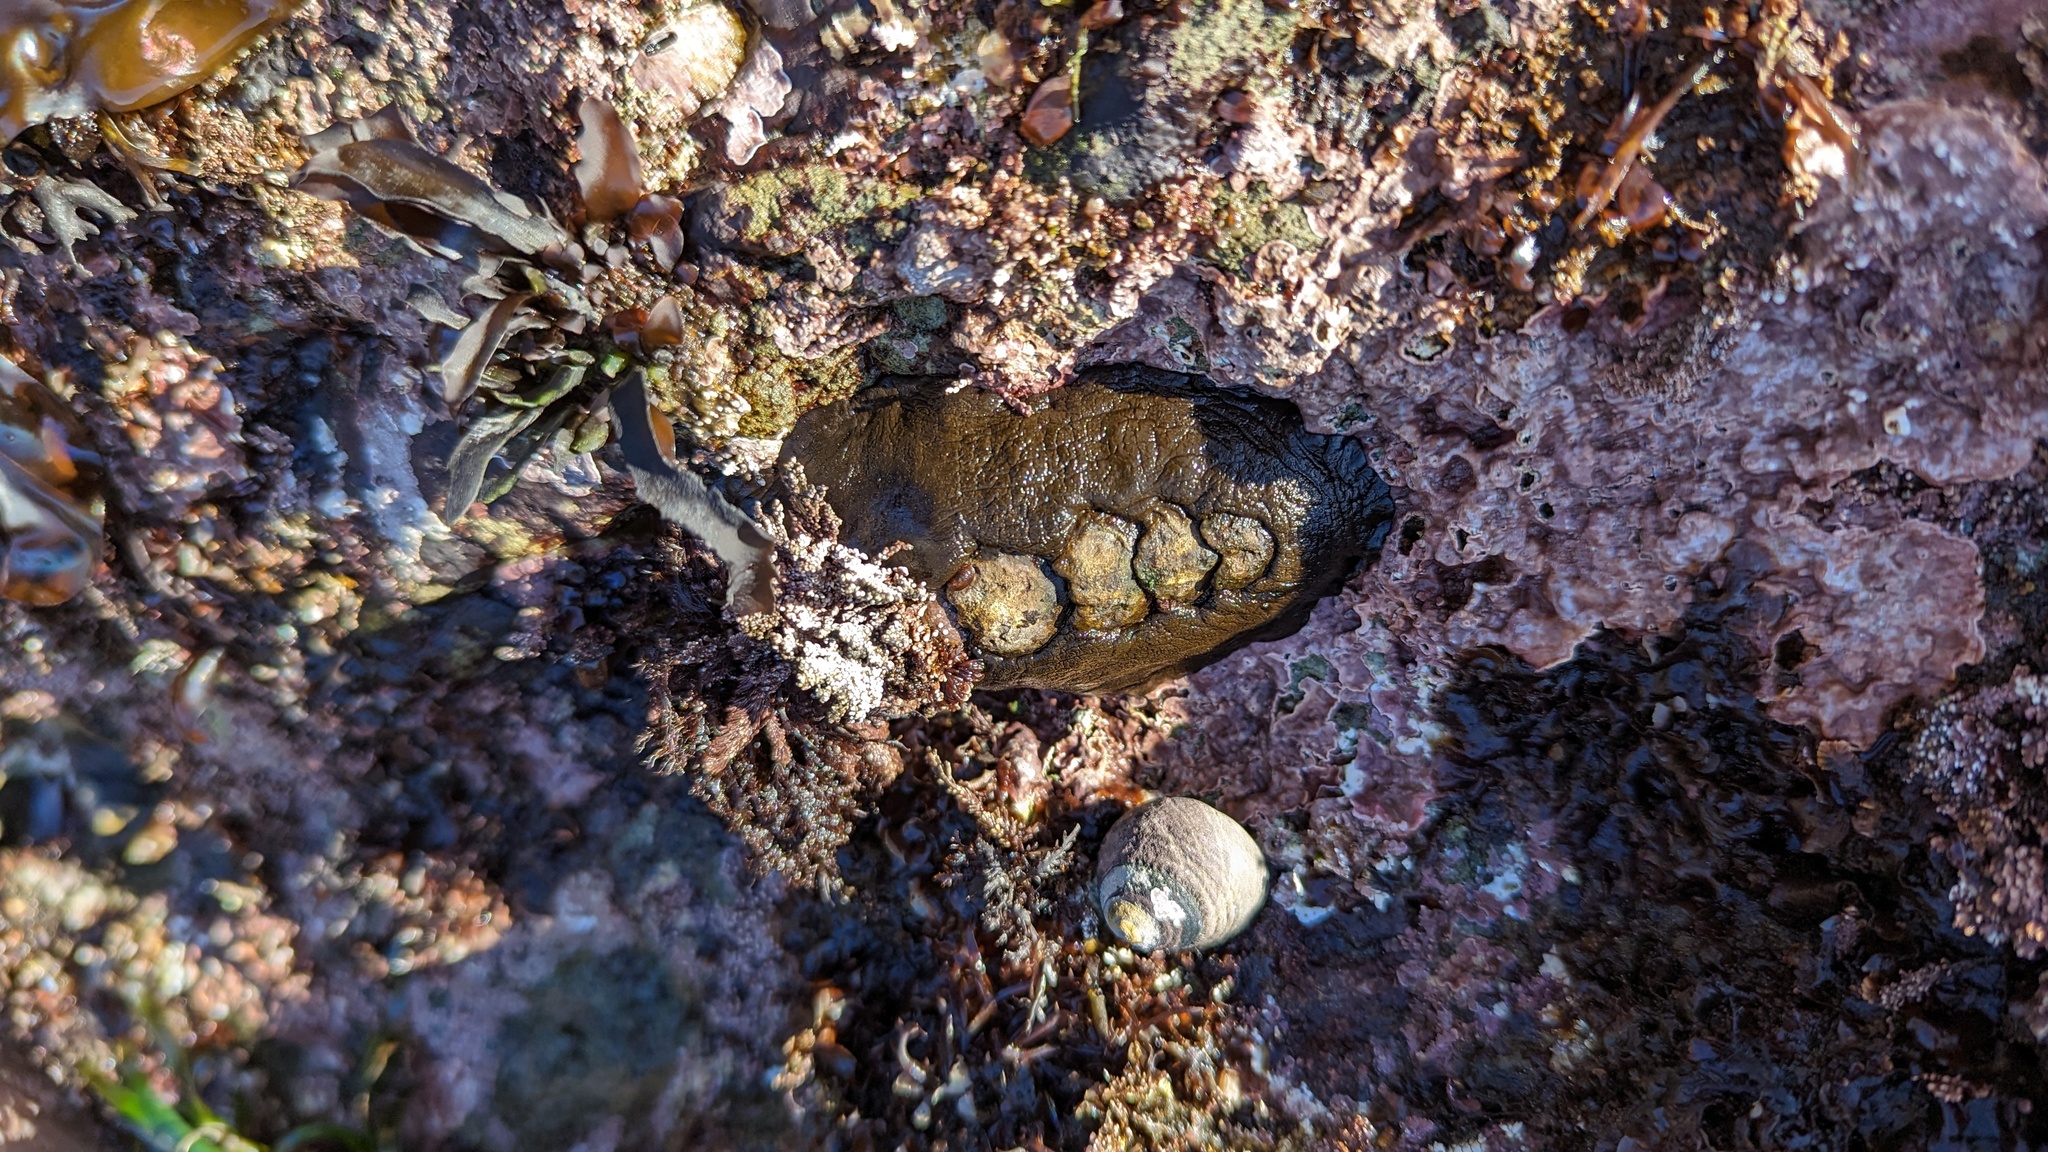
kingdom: Animalia
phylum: Mollusca
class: Polyplacophora
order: Chitonida
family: Mopaliidae
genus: Katharina
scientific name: Katharina tunicata
